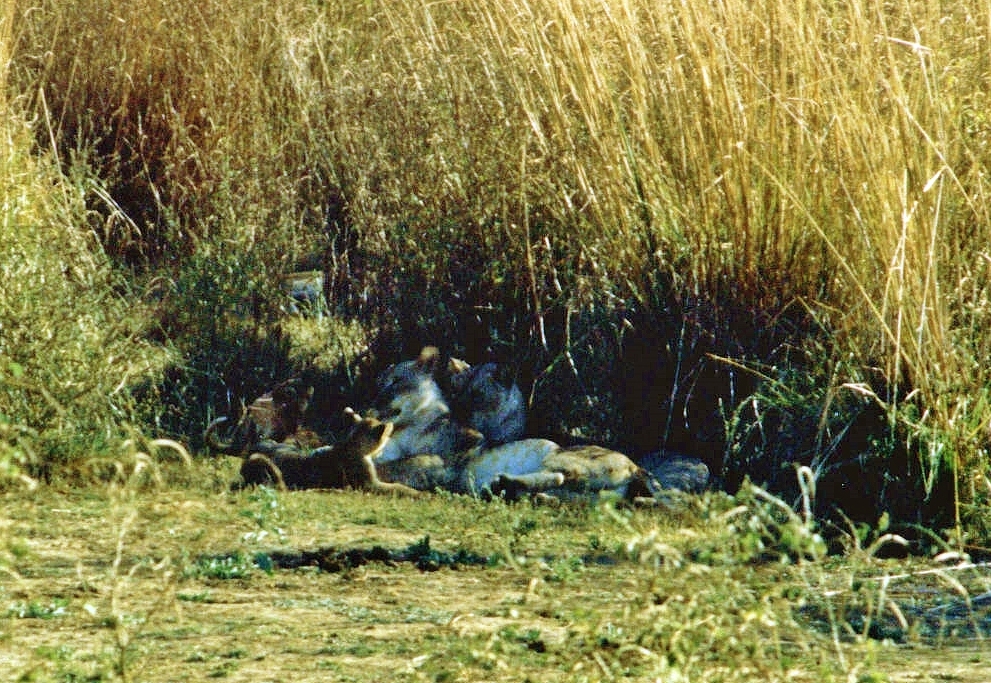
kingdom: Animalia
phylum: Chordata
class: Mammalia
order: Carnivora
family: Felidae
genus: Panthera
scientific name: Panthera leo
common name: Lion
